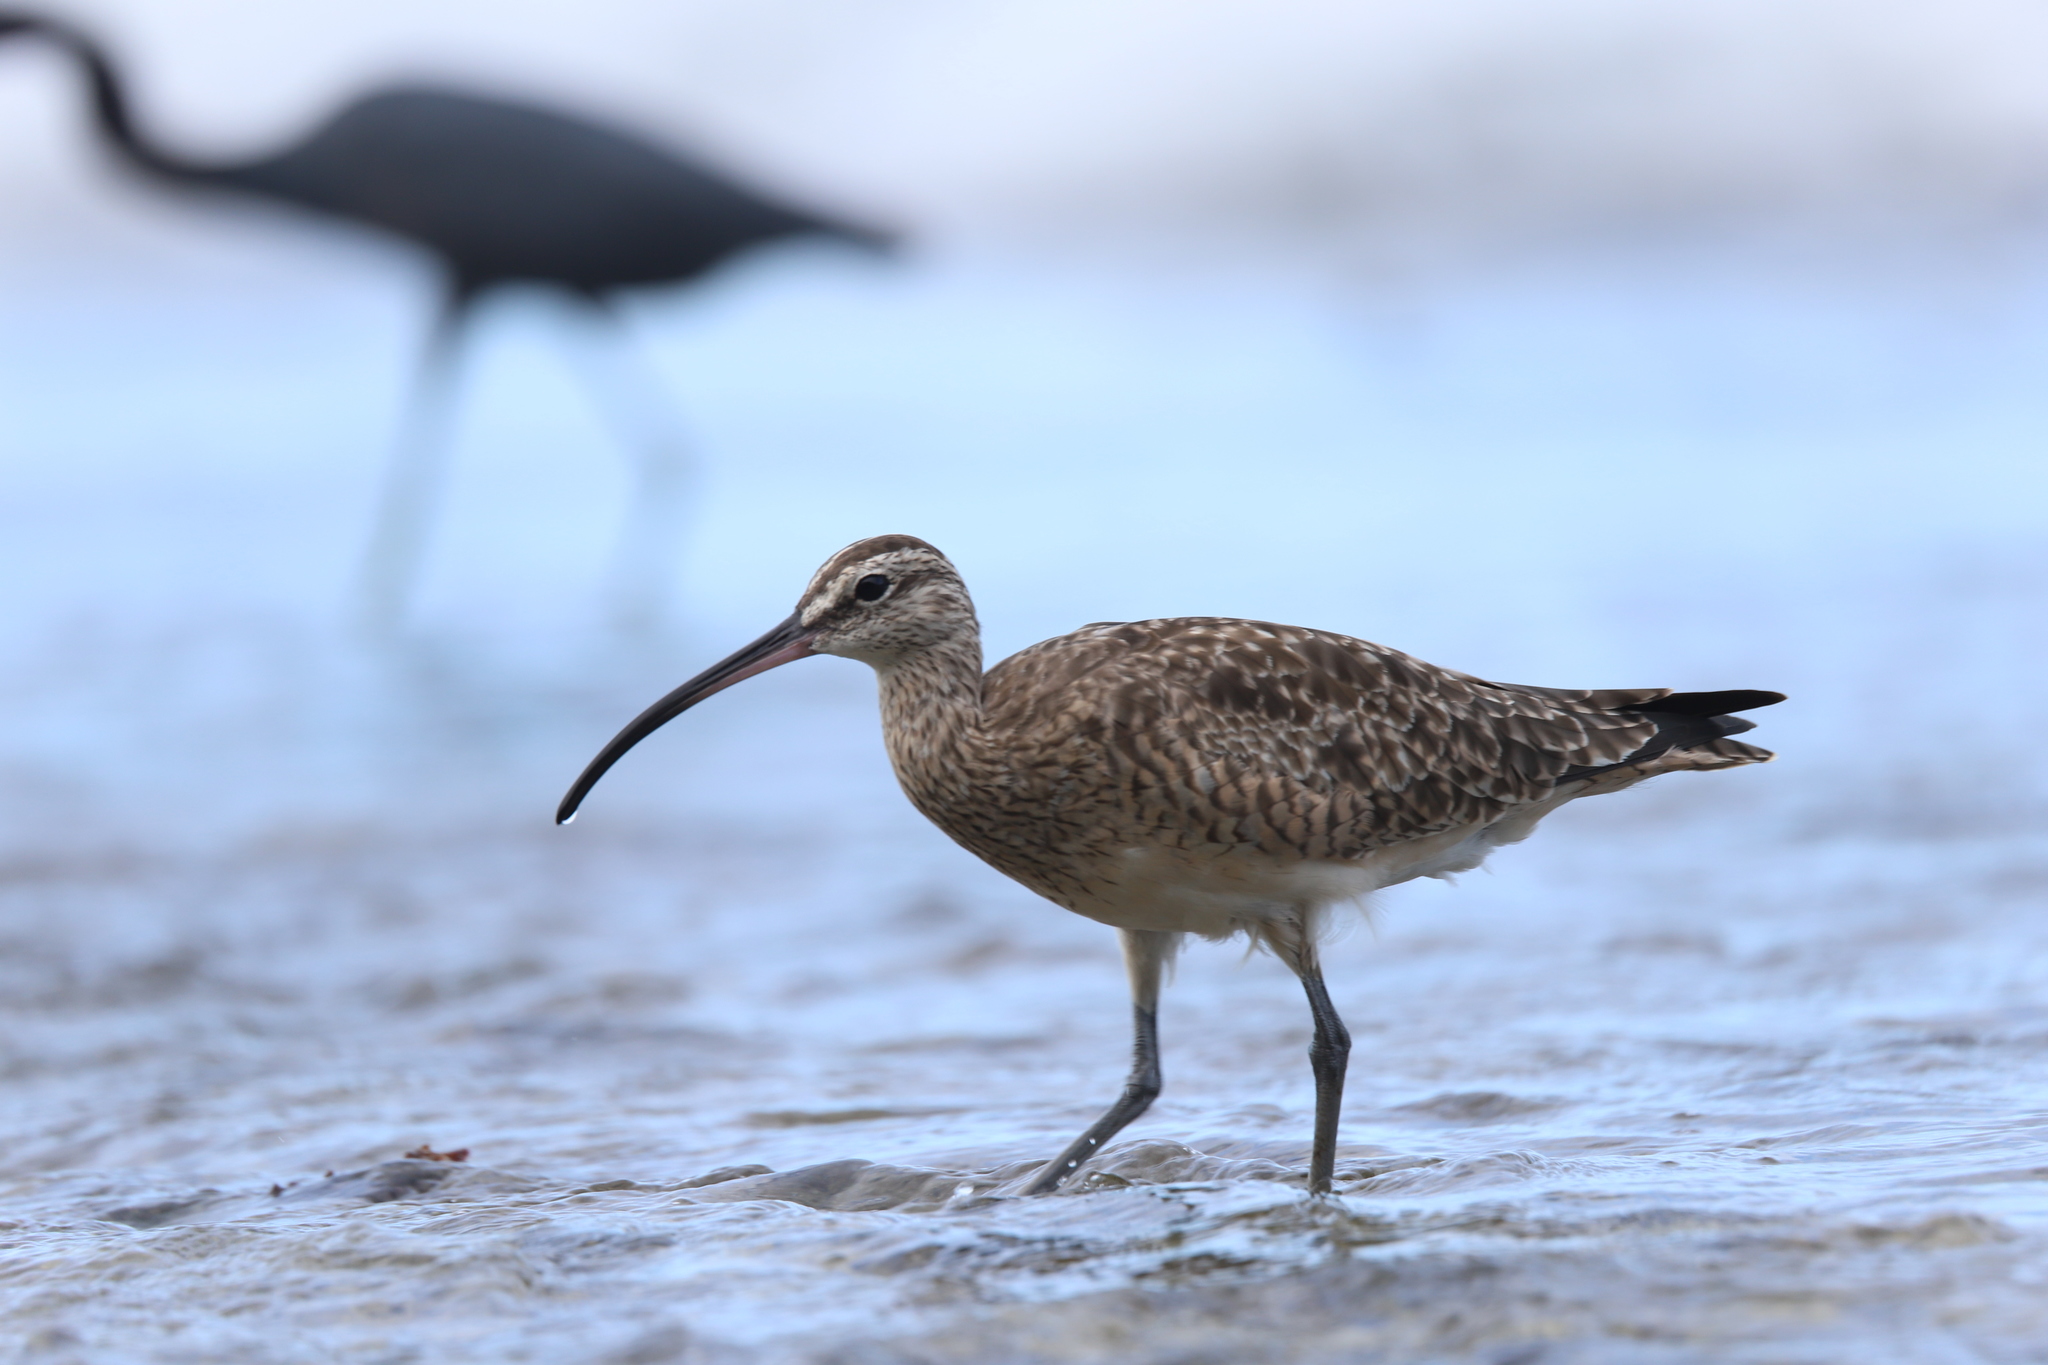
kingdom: Animalia
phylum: Chordata
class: Aves
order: Charadriiformes
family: Scolopacidae
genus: Numenius
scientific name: Numenius phaeopus
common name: Whimbrel
